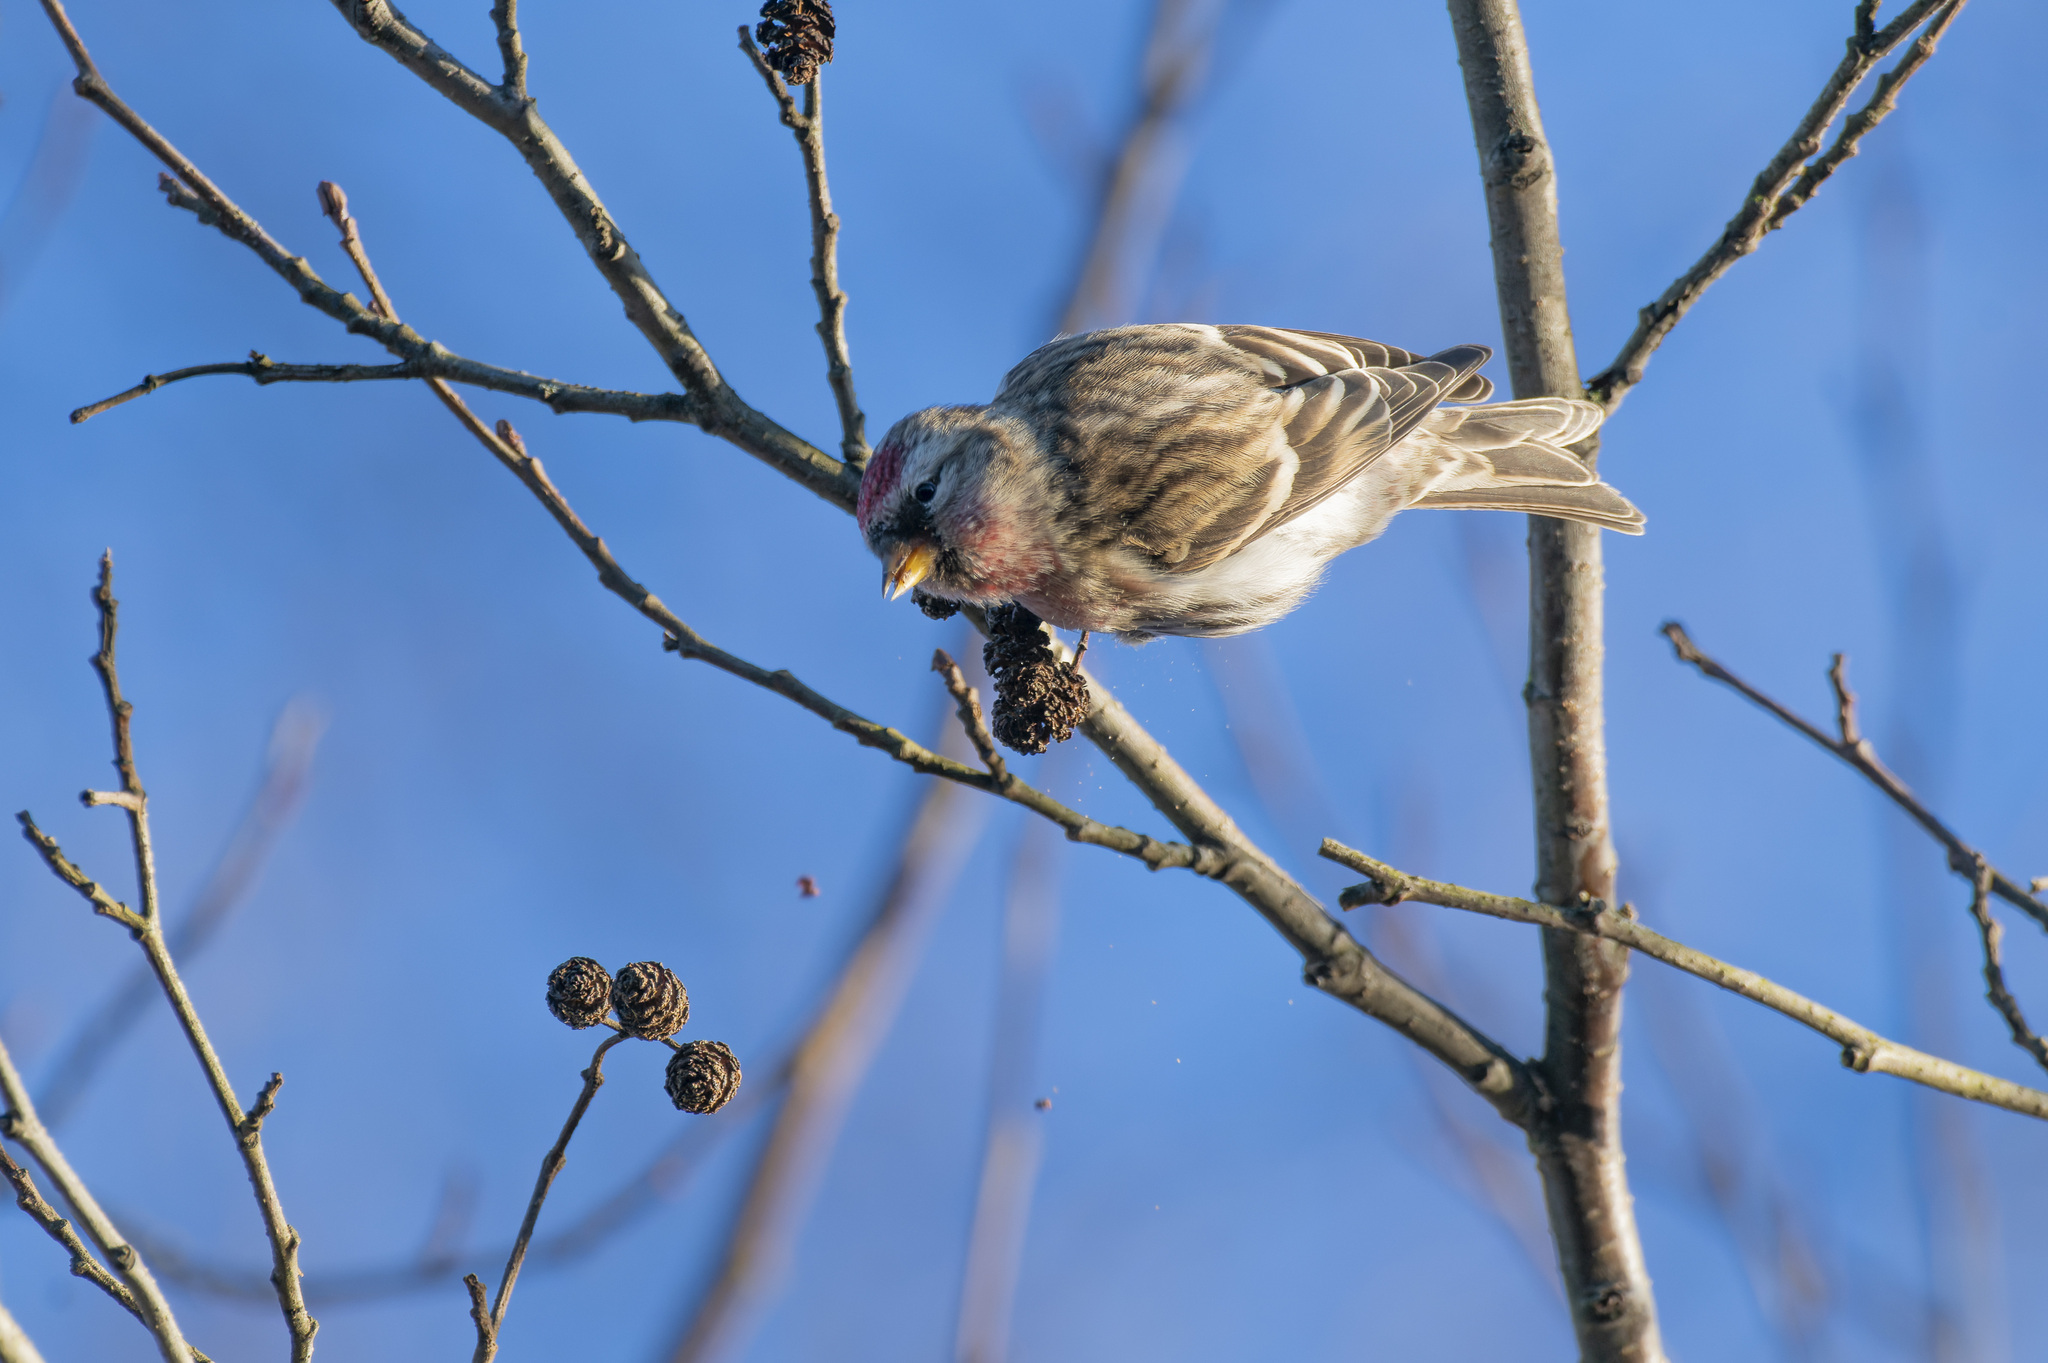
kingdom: Animalia
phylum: Chordata
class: Aves
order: Passeriformes
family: Fringillidae
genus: Acanthis
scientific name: Acanthis flammea
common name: Common redpoll
